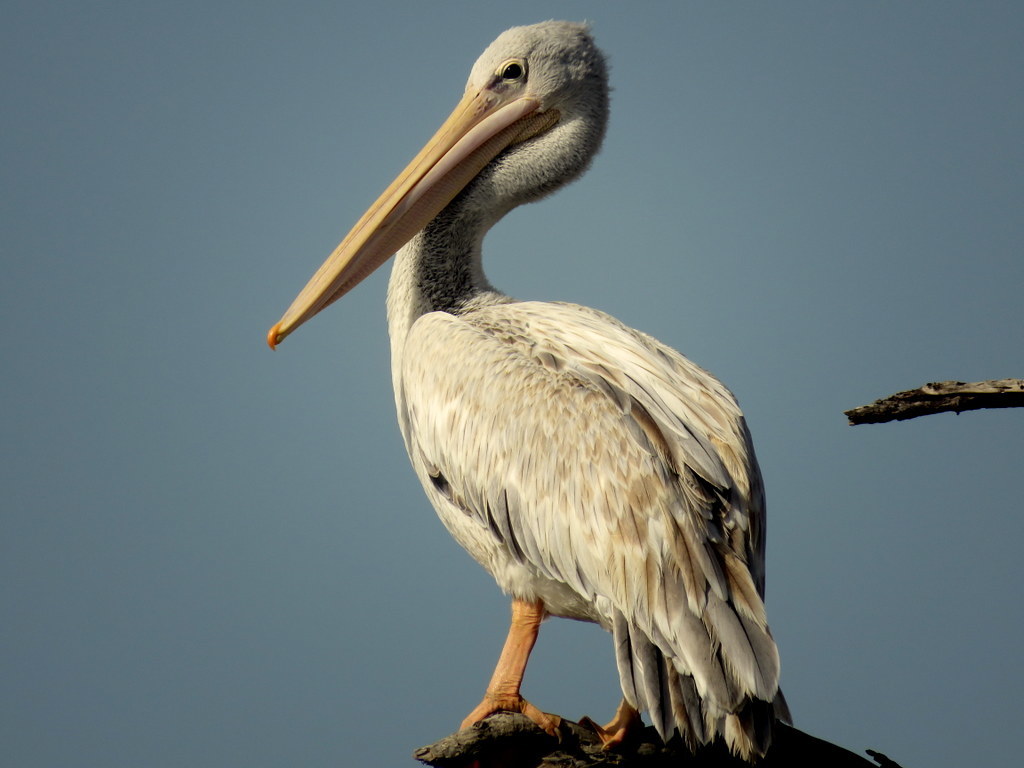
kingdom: Animalia
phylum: Chordata
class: Aves
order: Pelecaniformes
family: Pelecanidae
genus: Pelecanus
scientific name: Pelecanus onocrotalus
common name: Great white pelican
